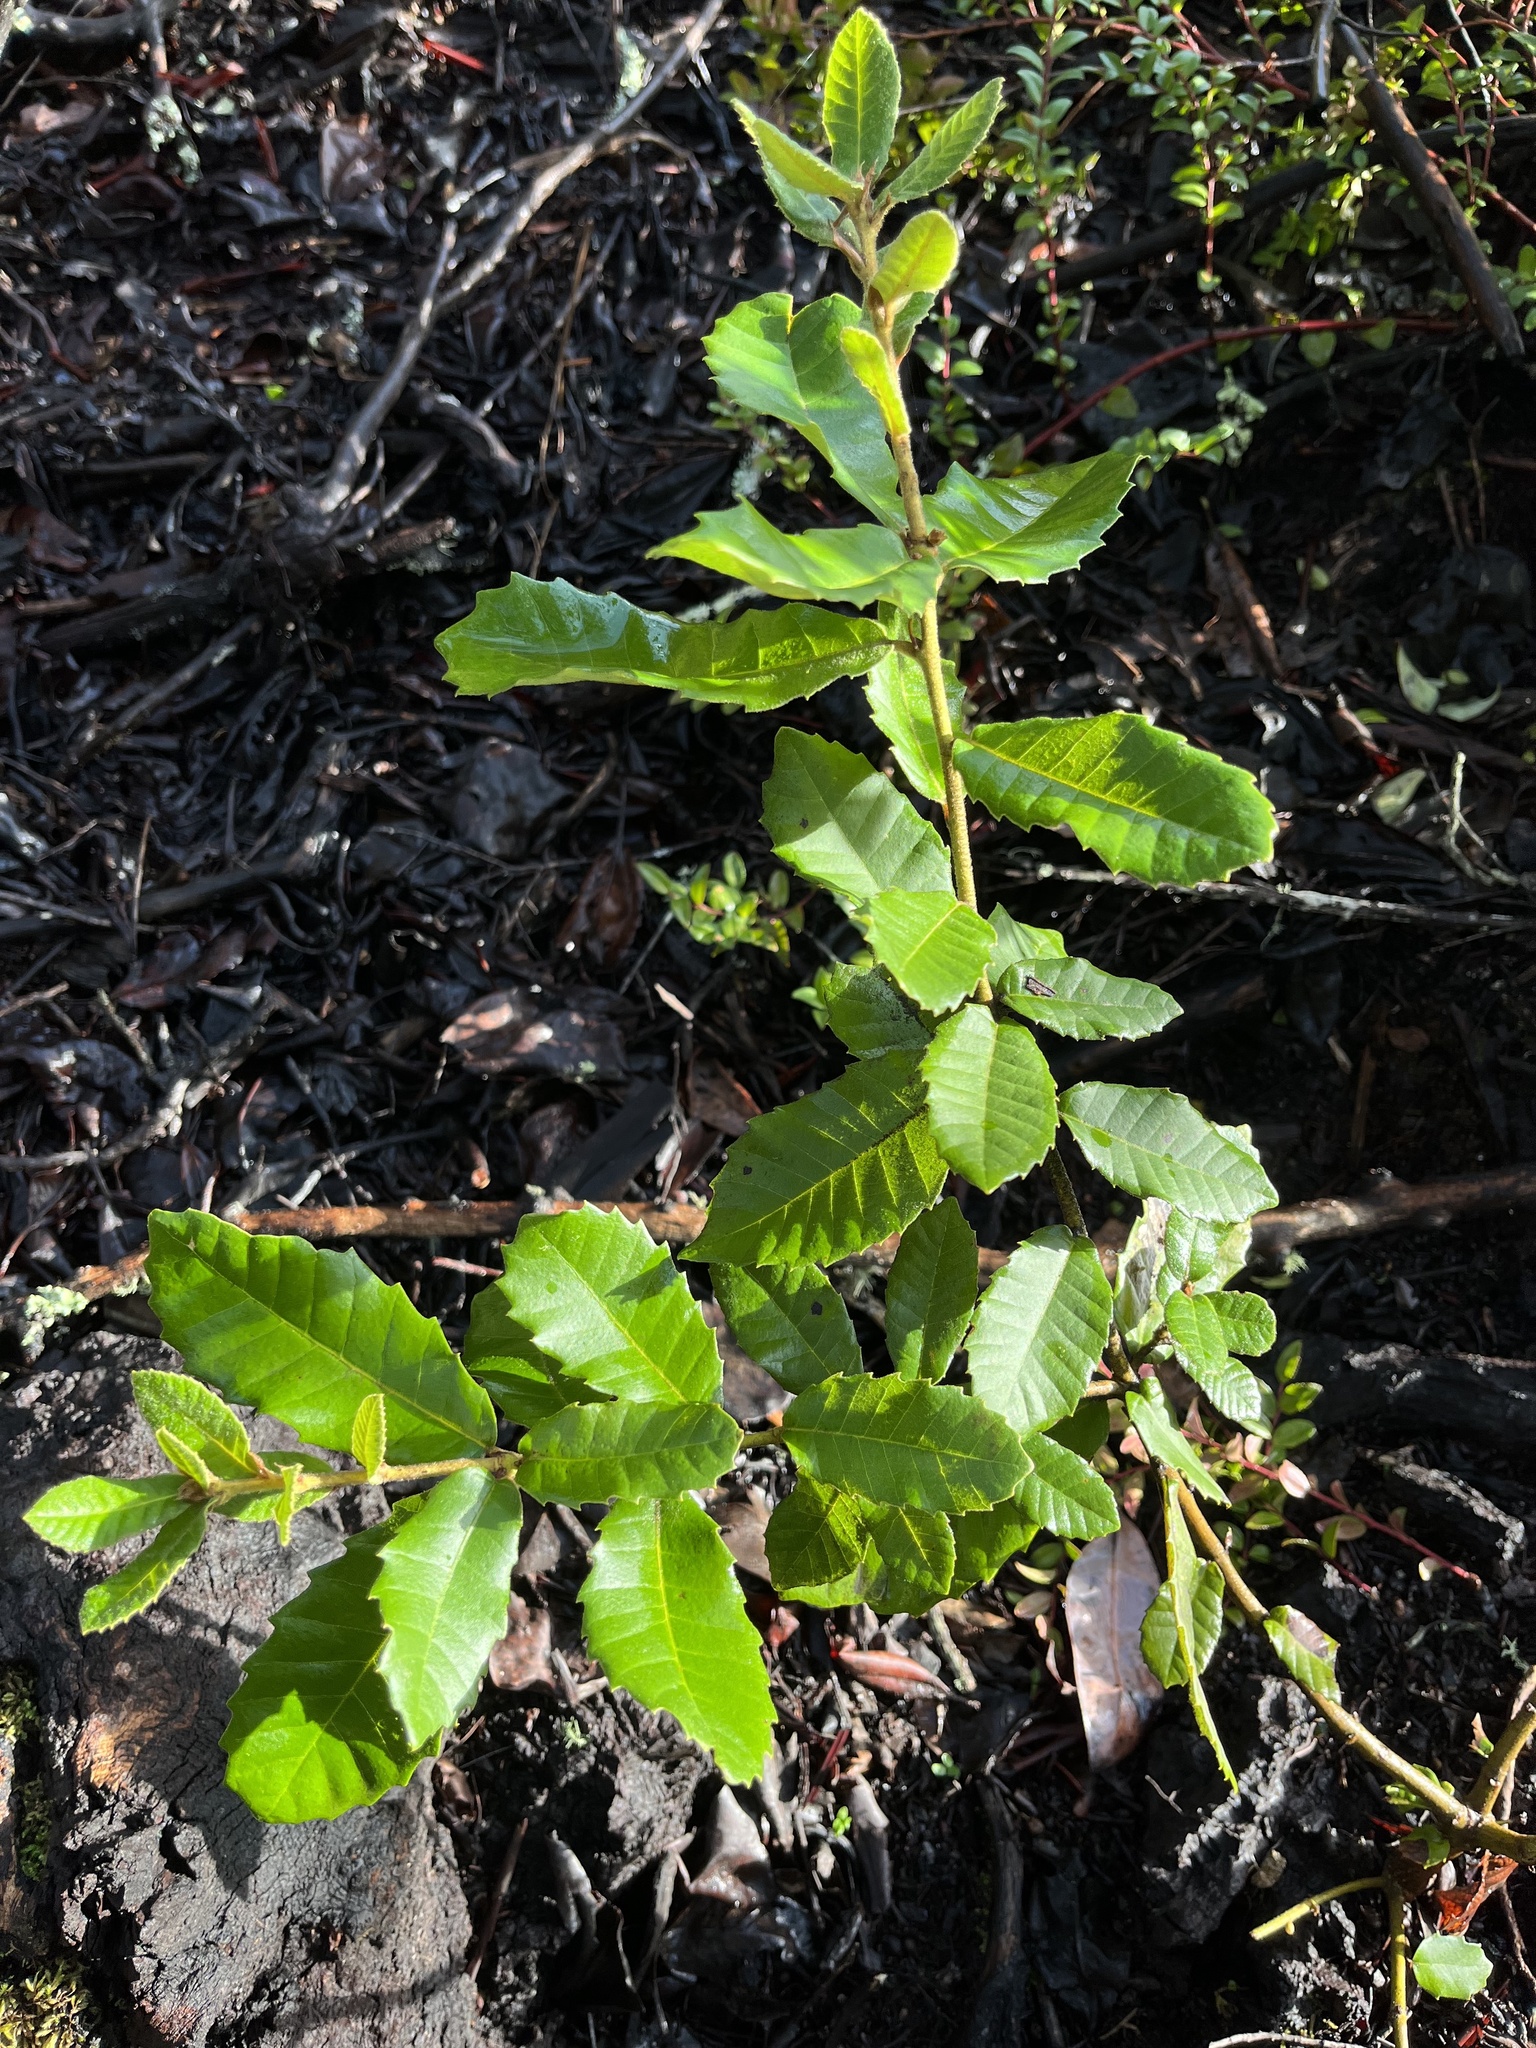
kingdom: Plantae
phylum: Tracheophyta
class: Magnoliopsida
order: Fagales
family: Fagaceae
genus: Notholithocarpus
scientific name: Notholithocarpus densiflorus
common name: Tan bark oak
